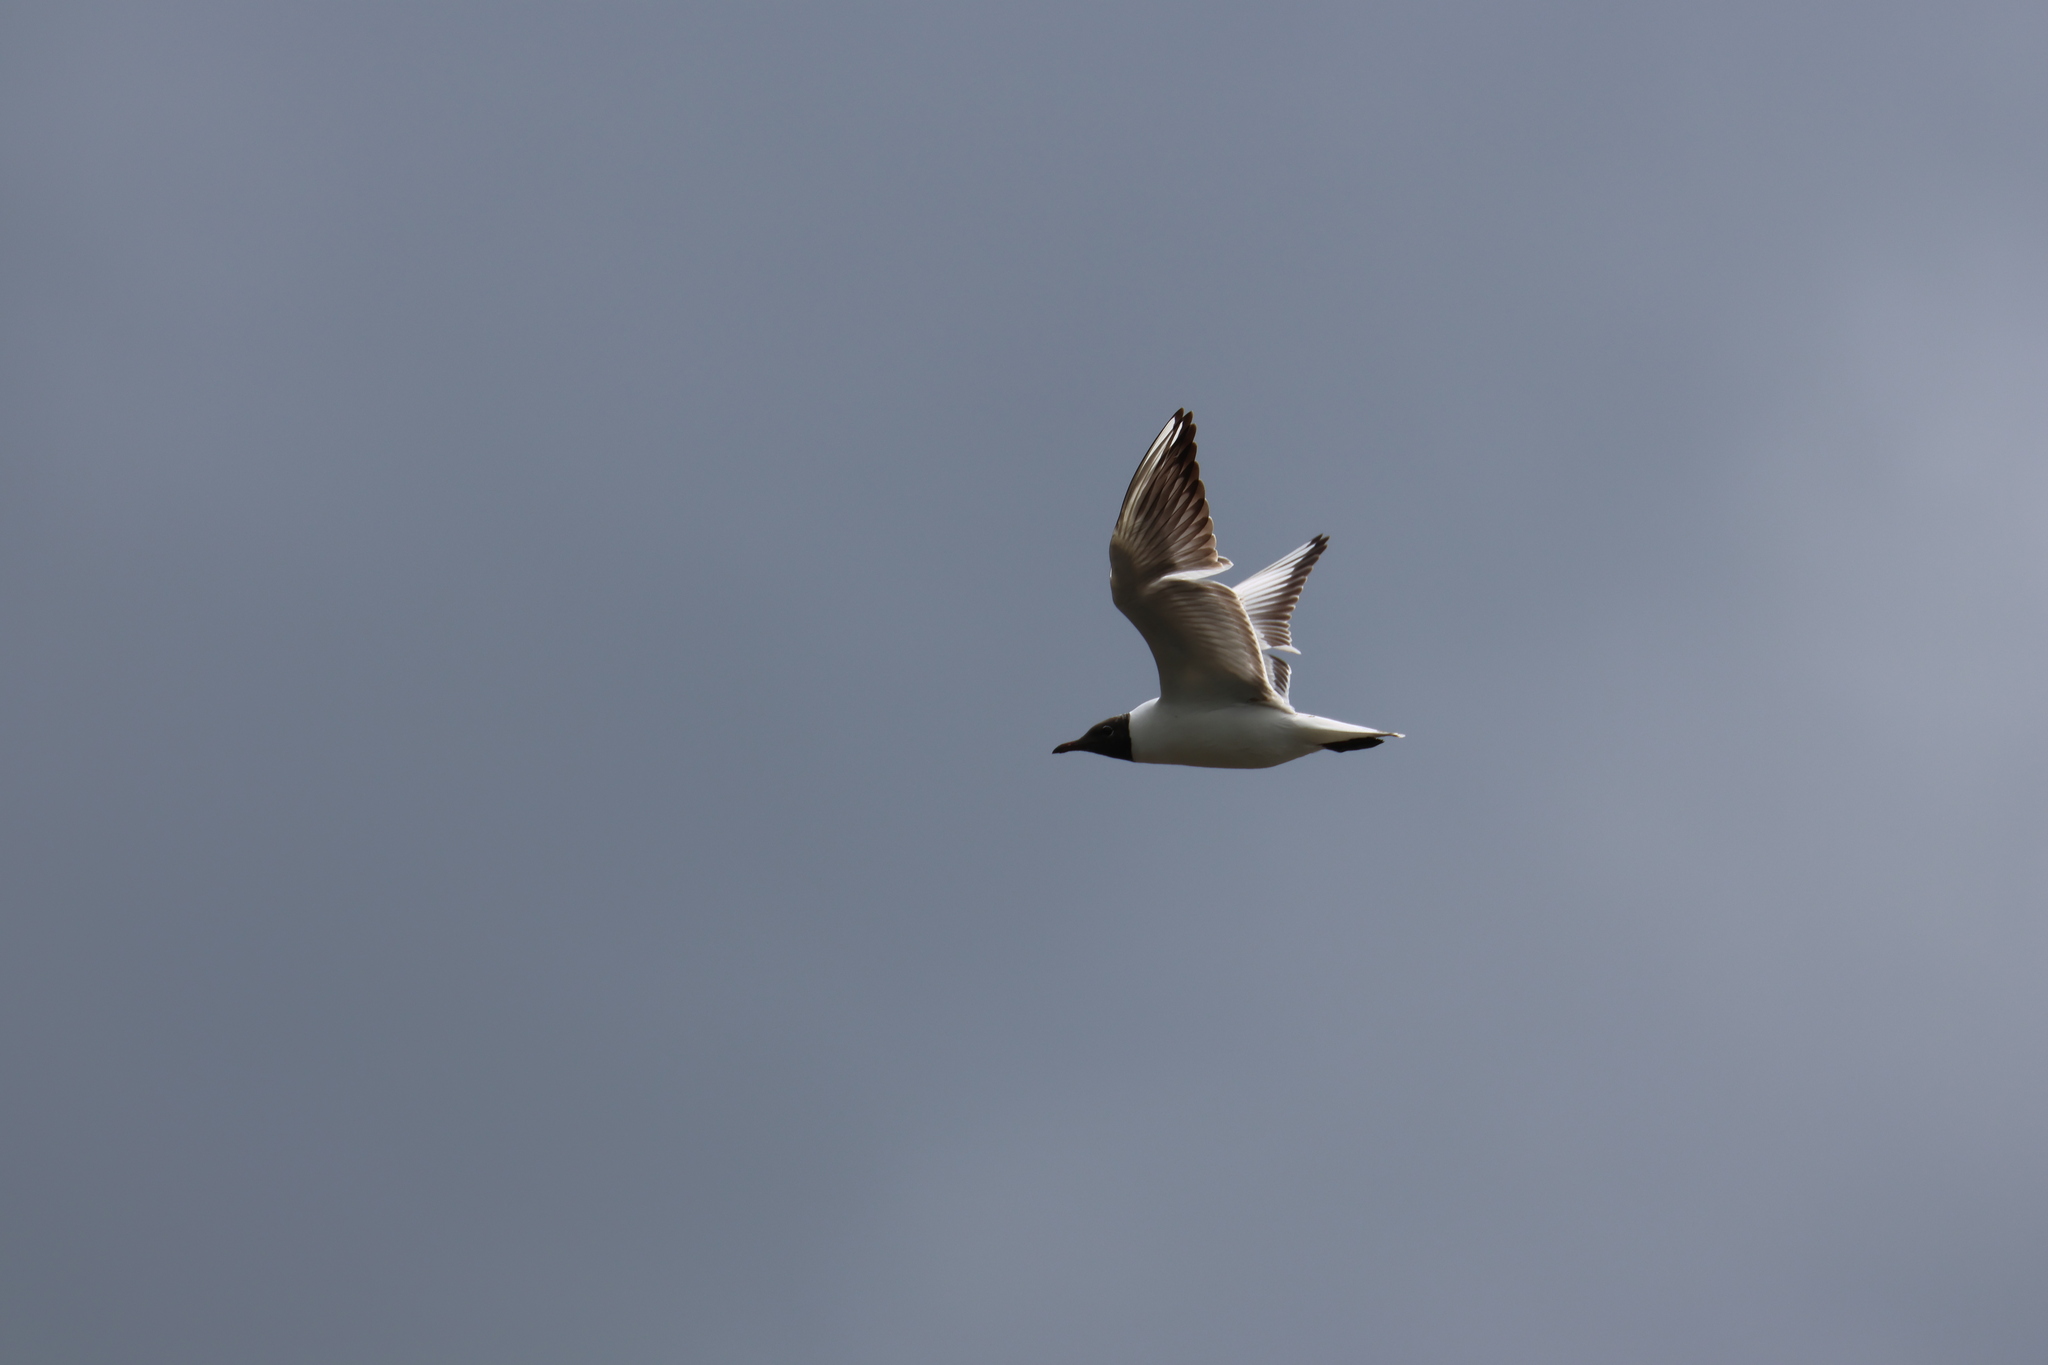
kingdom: Animalia
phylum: Chordata
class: Aves
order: Charadriiformes
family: Laridae
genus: Chroicocephalus
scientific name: Chroicocephalus ridibundus
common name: Black-headed gull
